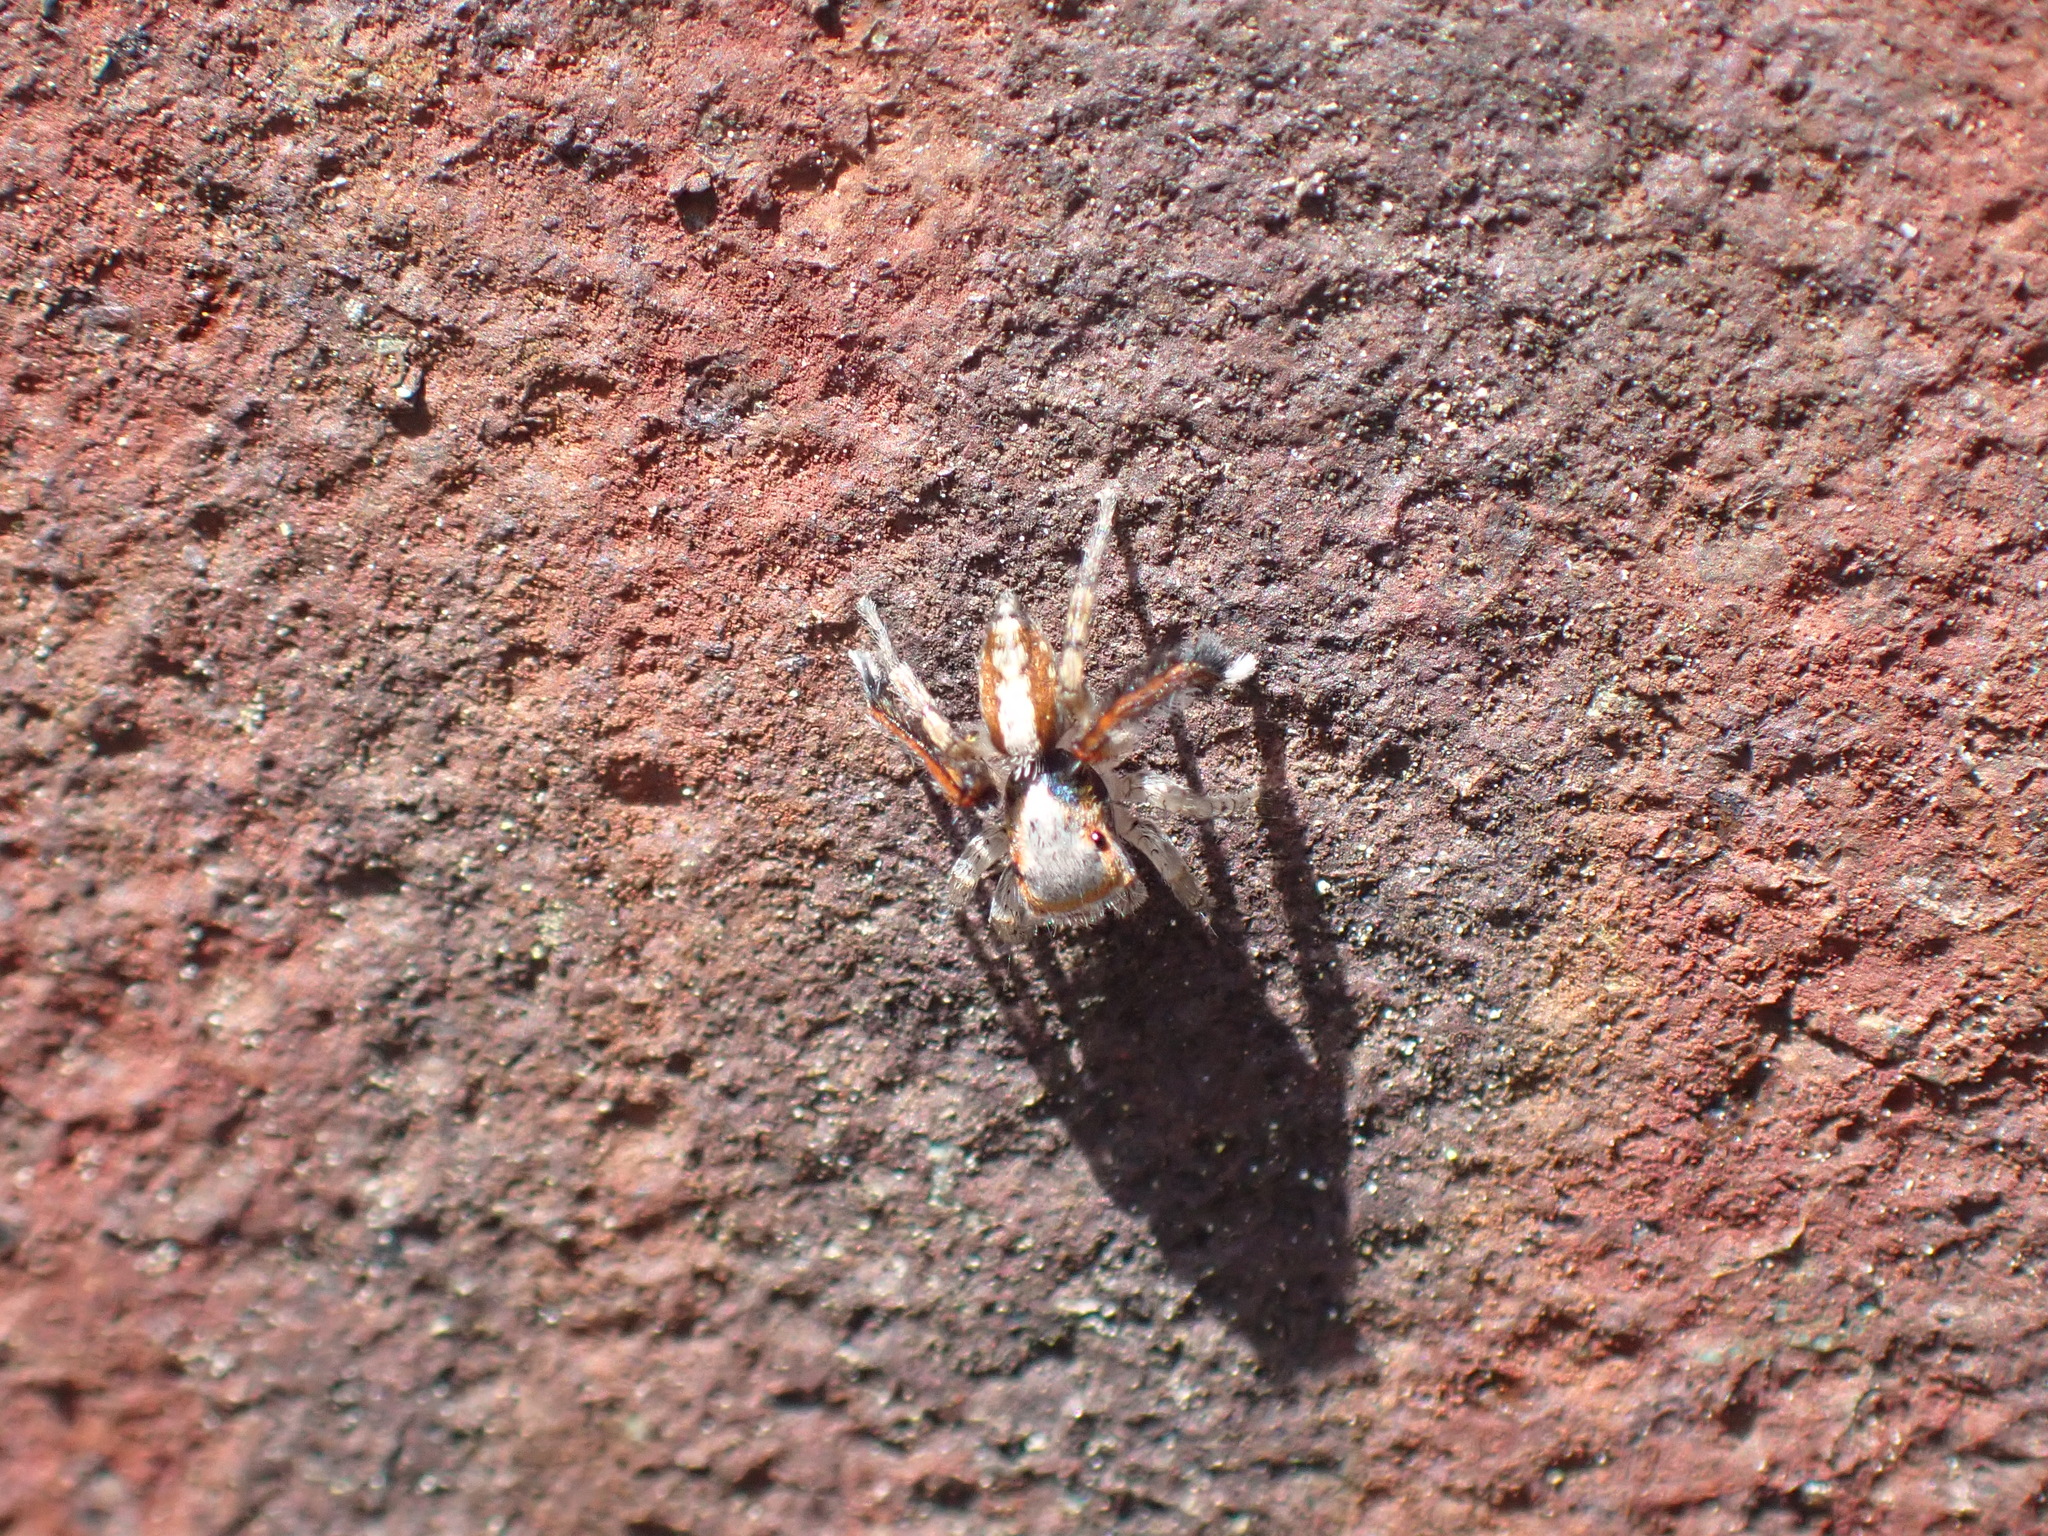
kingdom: Animalia
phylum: Arthropoda
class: Arachnida
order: Araneae
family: Salticidae
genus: Saitis
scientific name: Saitis barbipes
